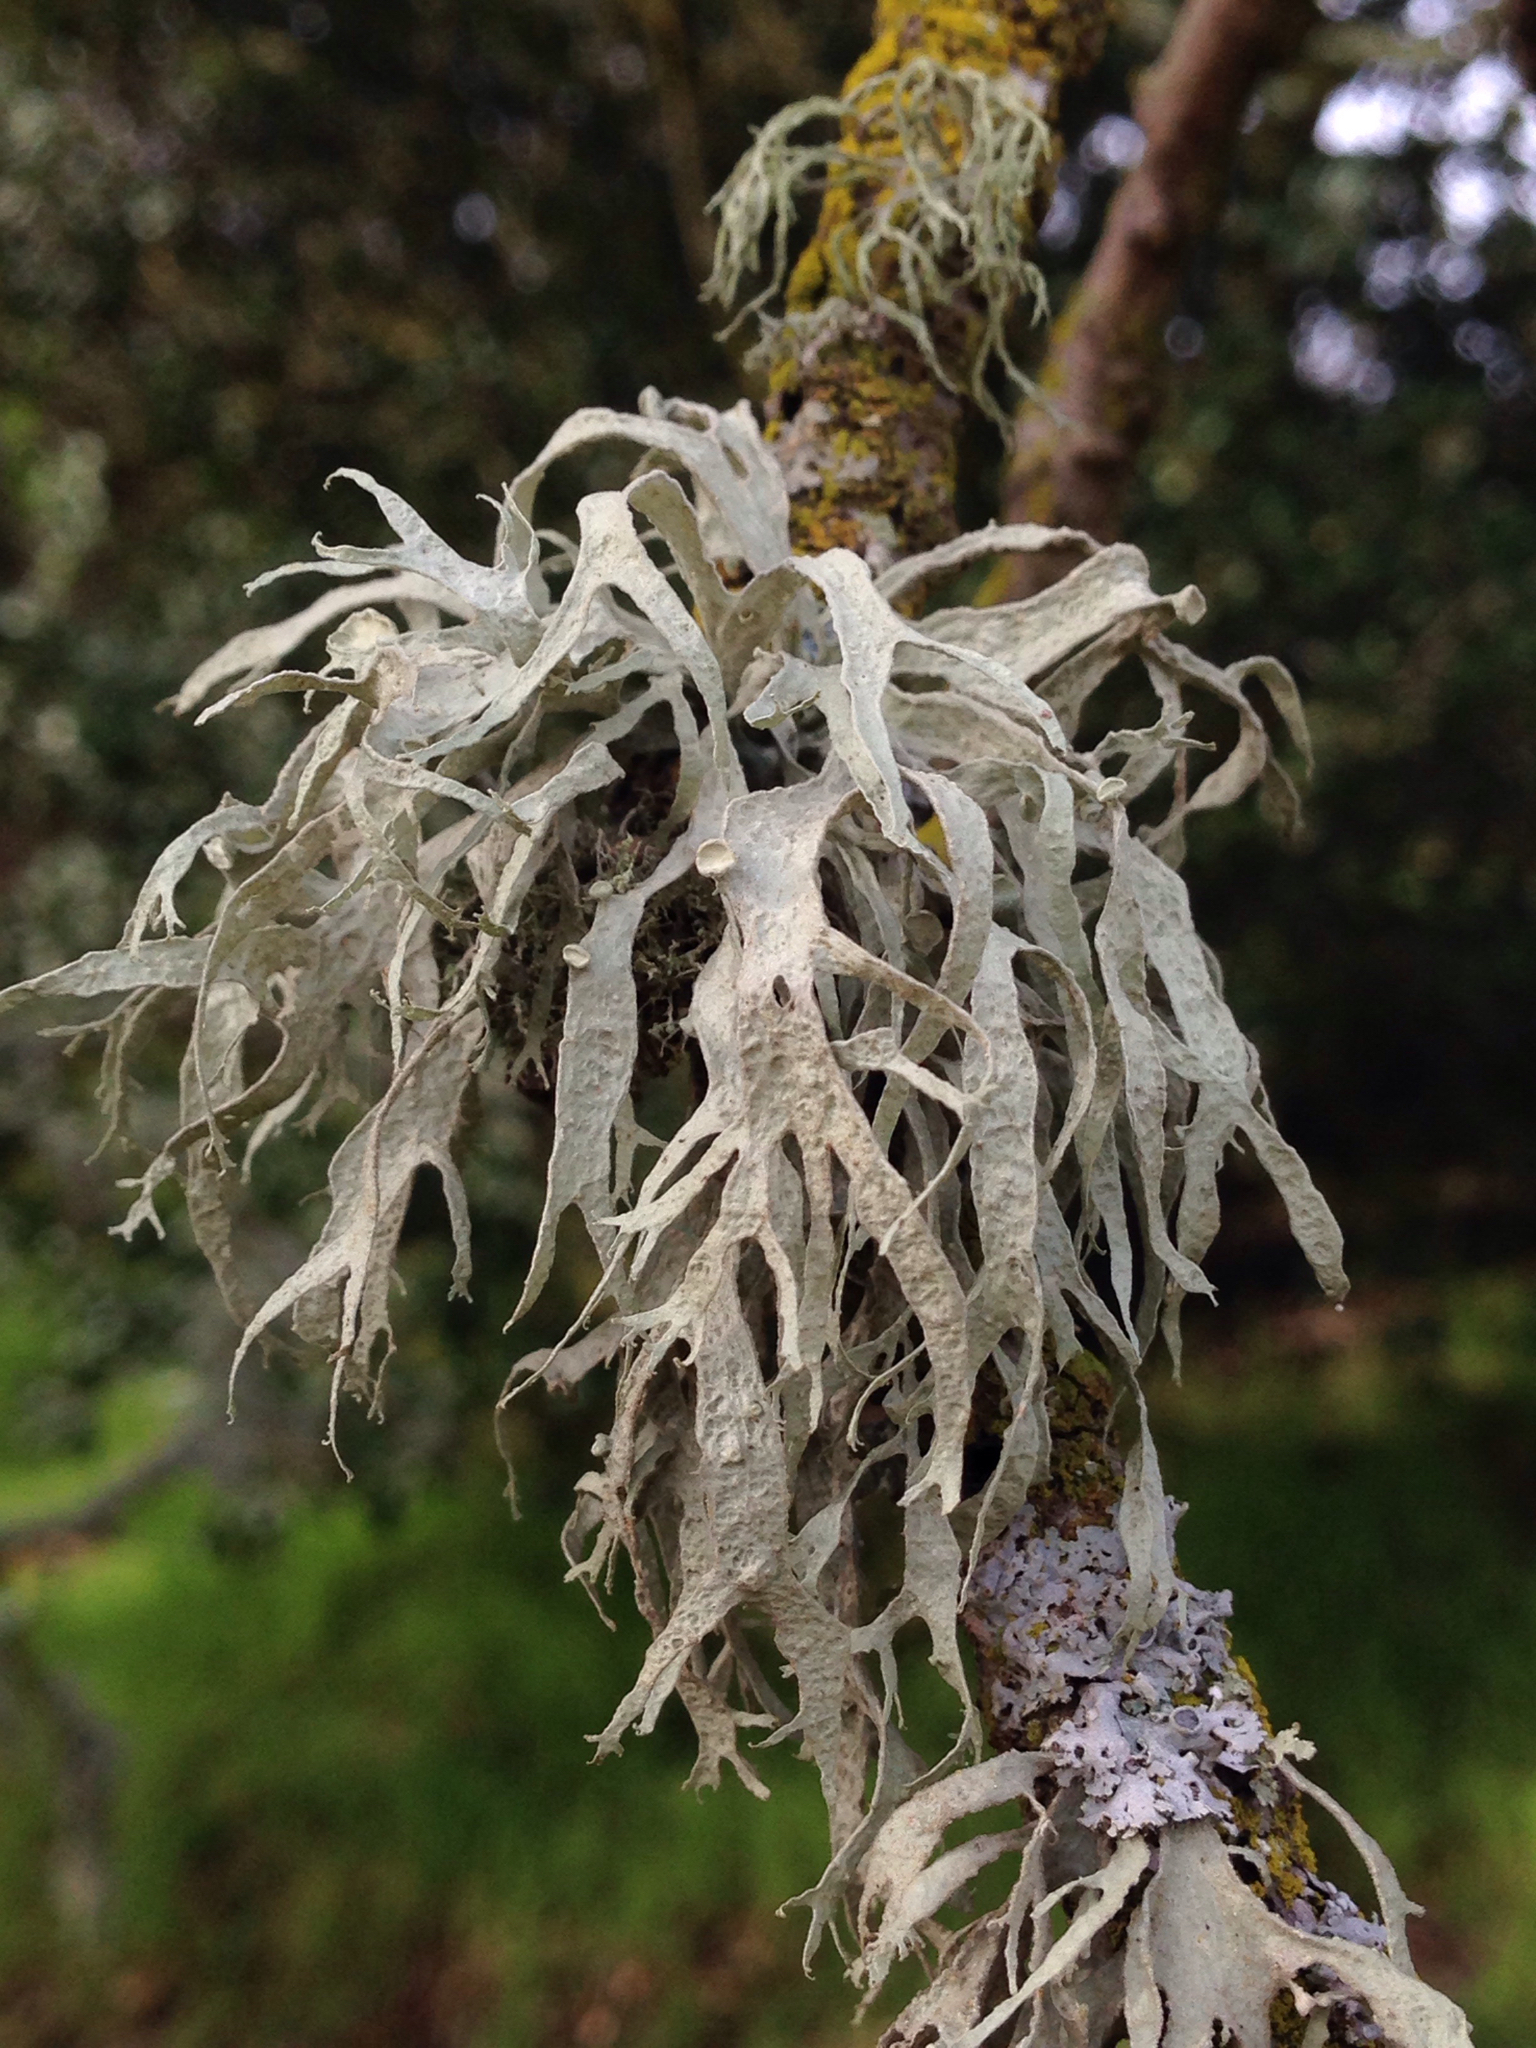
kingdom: Fungi
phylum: Ascomycota
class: Lecanoromycetes
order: Lecanorales
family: Ramalinaceae
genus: Ramalina
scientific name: Ramalina leptocarpha
